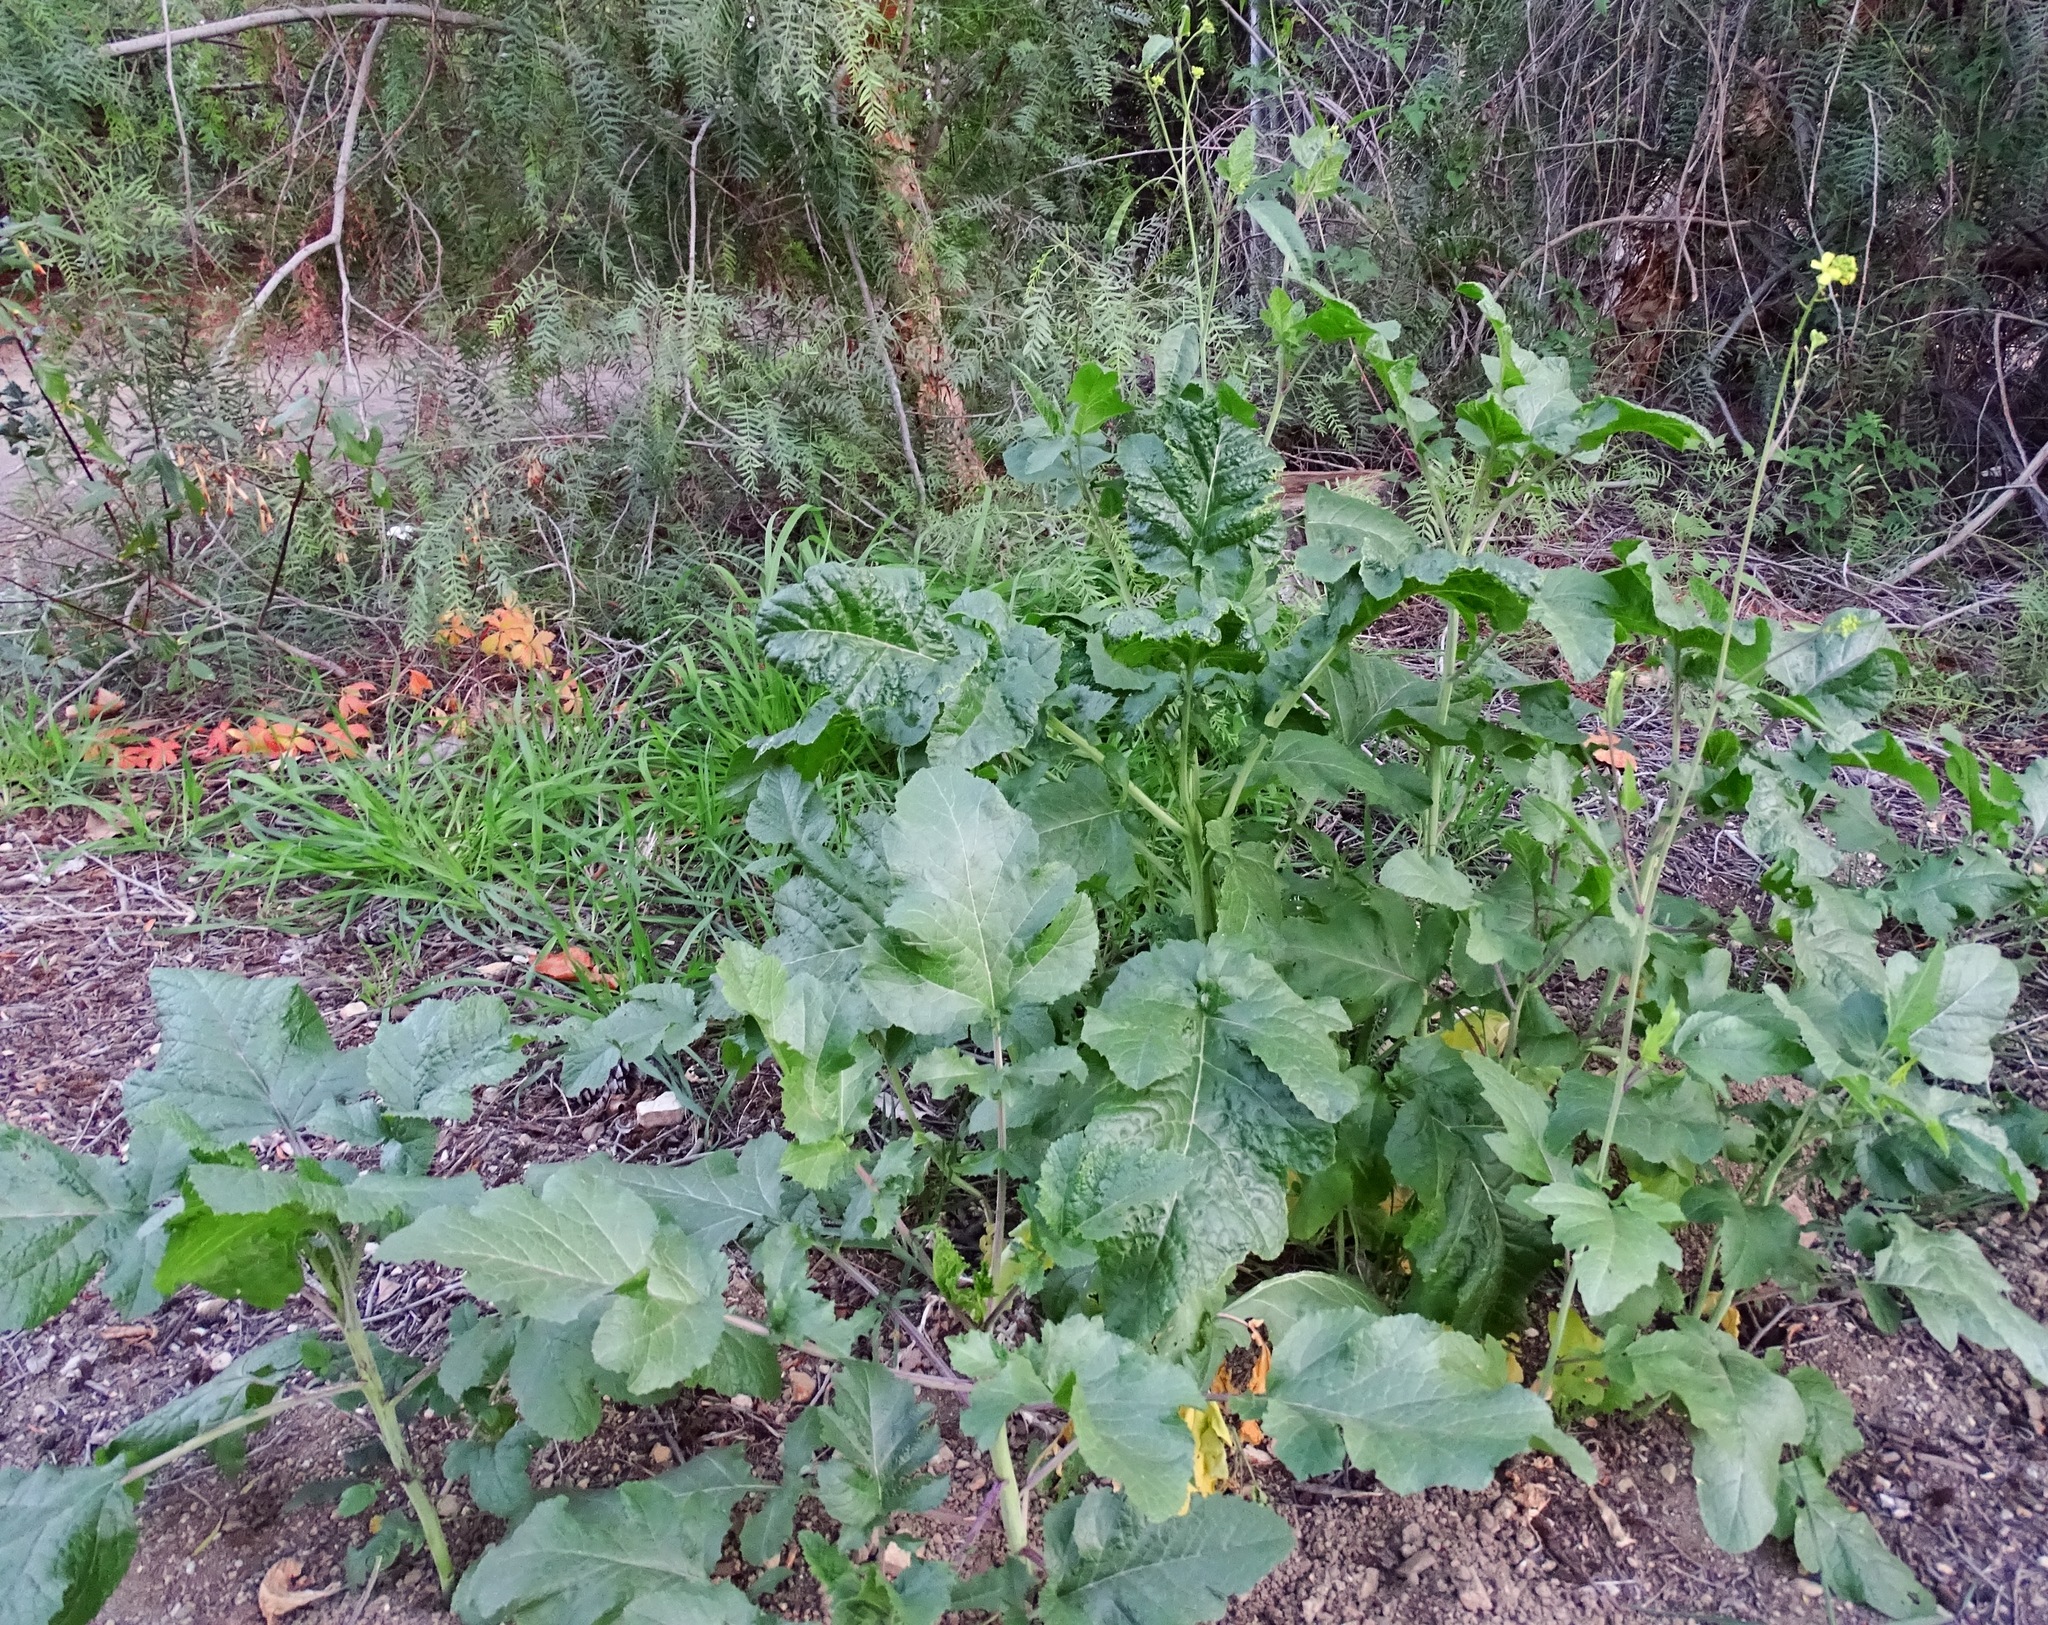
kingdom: Plantae
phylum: Tracheophyta
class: Magnoliopsida
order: Brassicales
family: Brassicaceae
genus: Brassica
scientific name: Brassica nigra
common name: Black mustard
